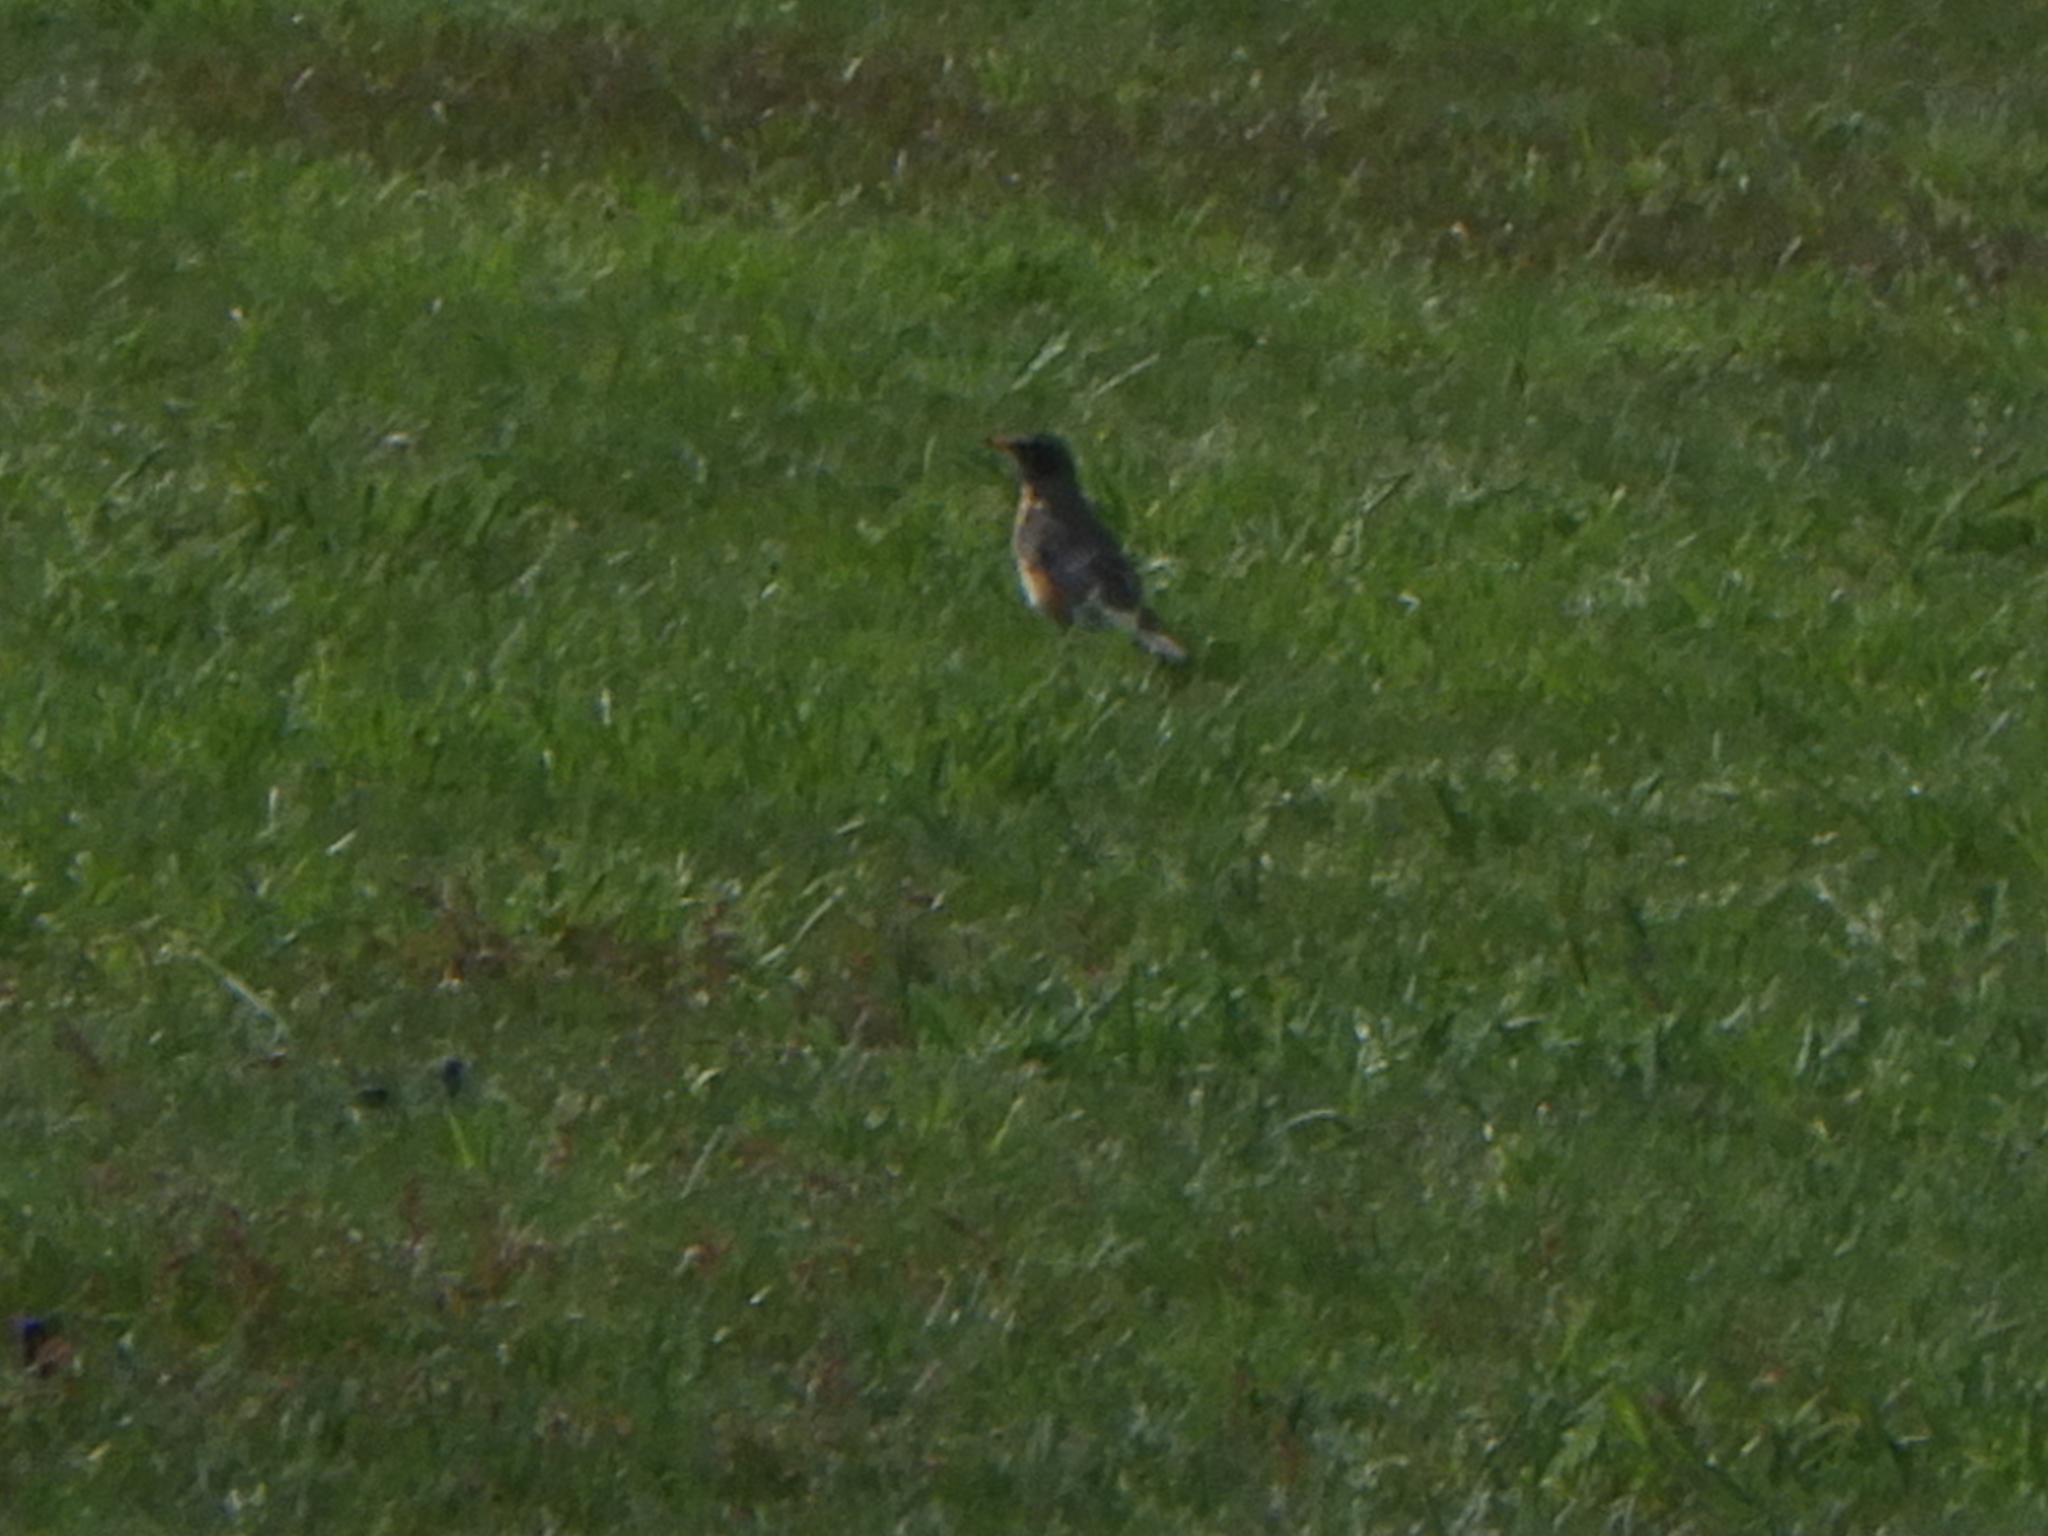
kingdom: Animalia
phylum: Chordata
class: Aves
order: Passeriformes
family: Turdidae
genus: Turdus
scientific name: Turdus migratorius
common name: American robin
